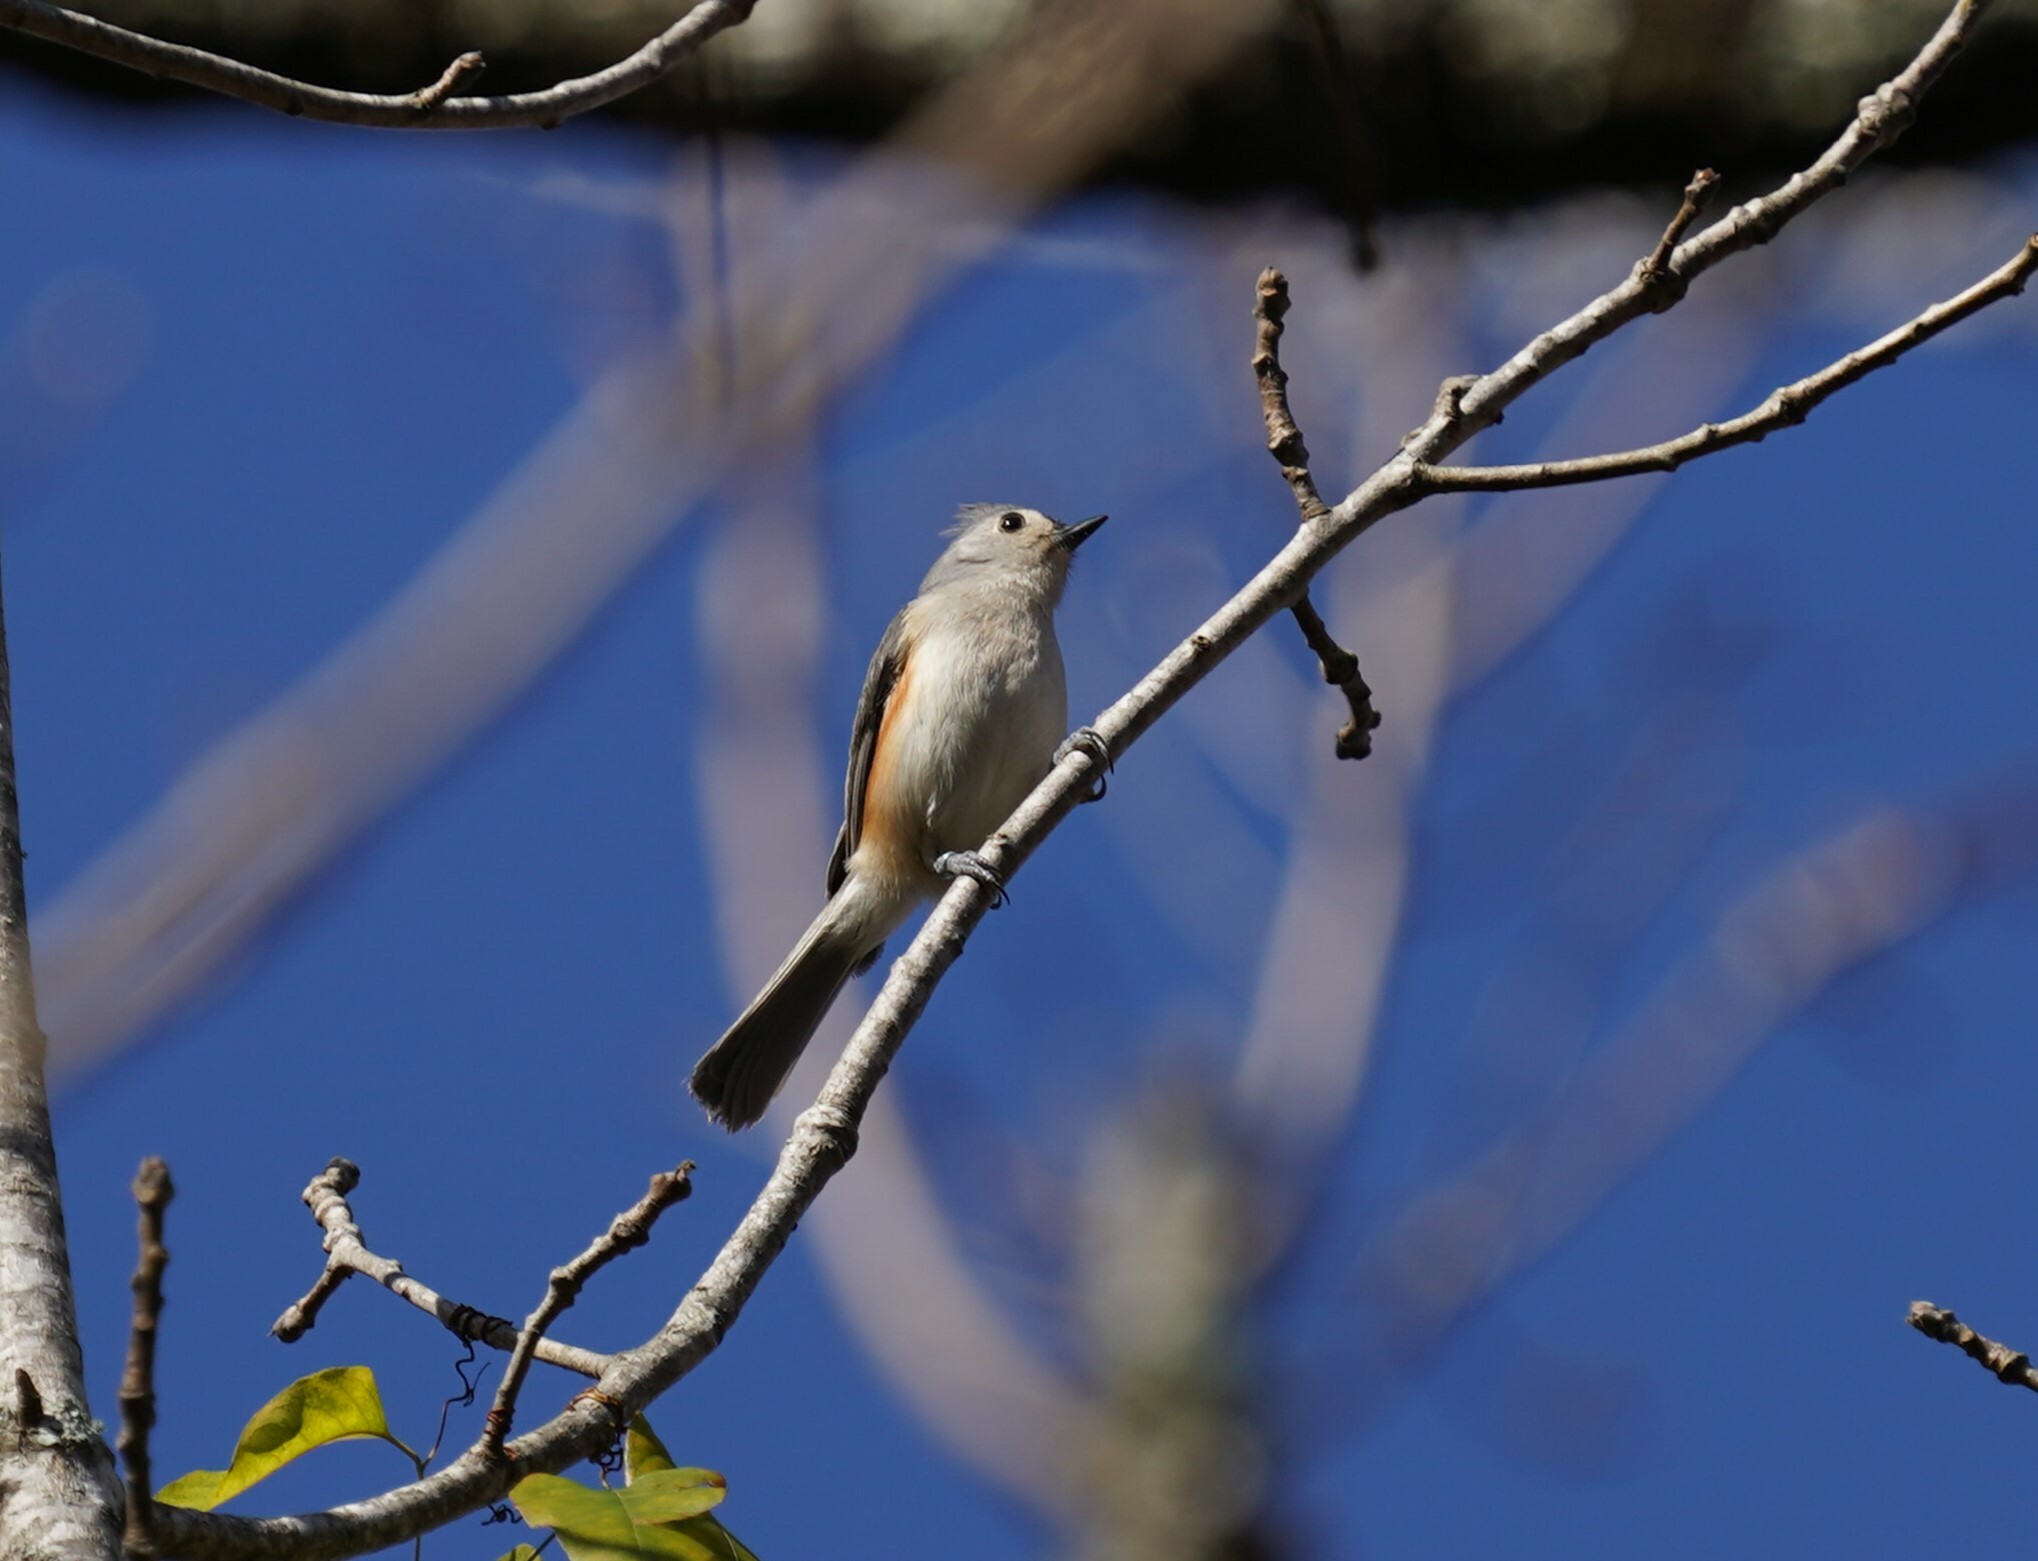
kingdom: Animalia
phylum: Chordata
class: Aves
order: Passeriformes
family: Paridae
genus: Baeolophus
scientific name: Baeolophus bicolor
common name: Tufted titmouse
